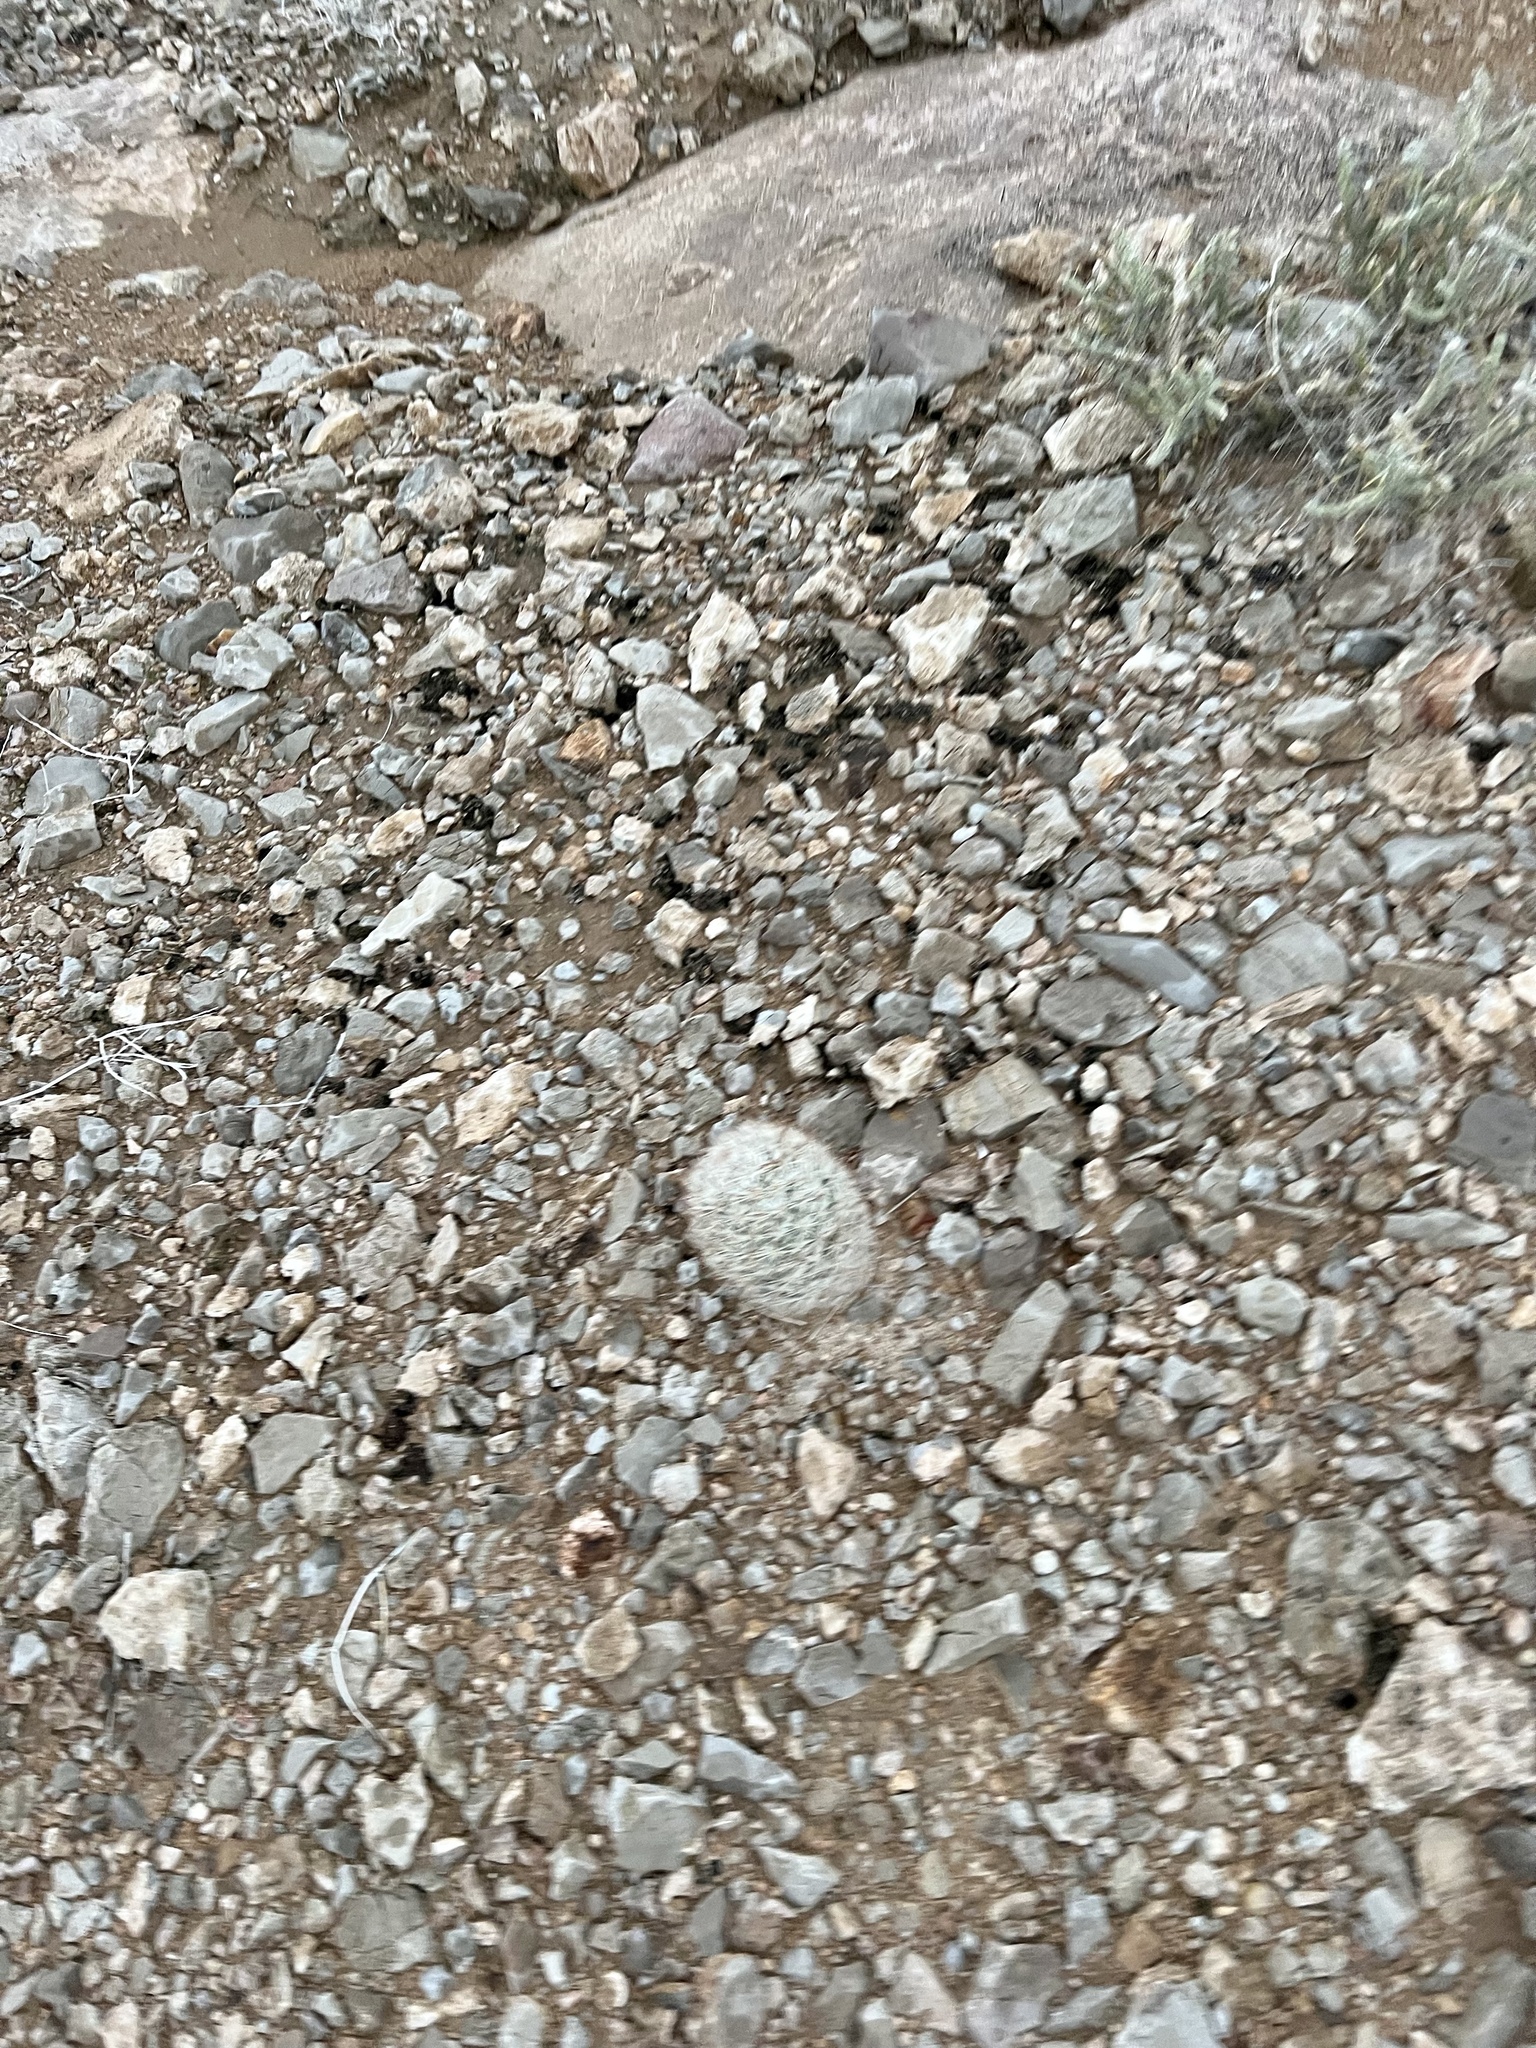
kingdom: Plantae
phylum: Tracheophyta
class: Magnoliopsida
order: Caryophyllales
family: Cactaceae
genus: Pelecyphora
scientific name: Pelecyphora dasyacantha
